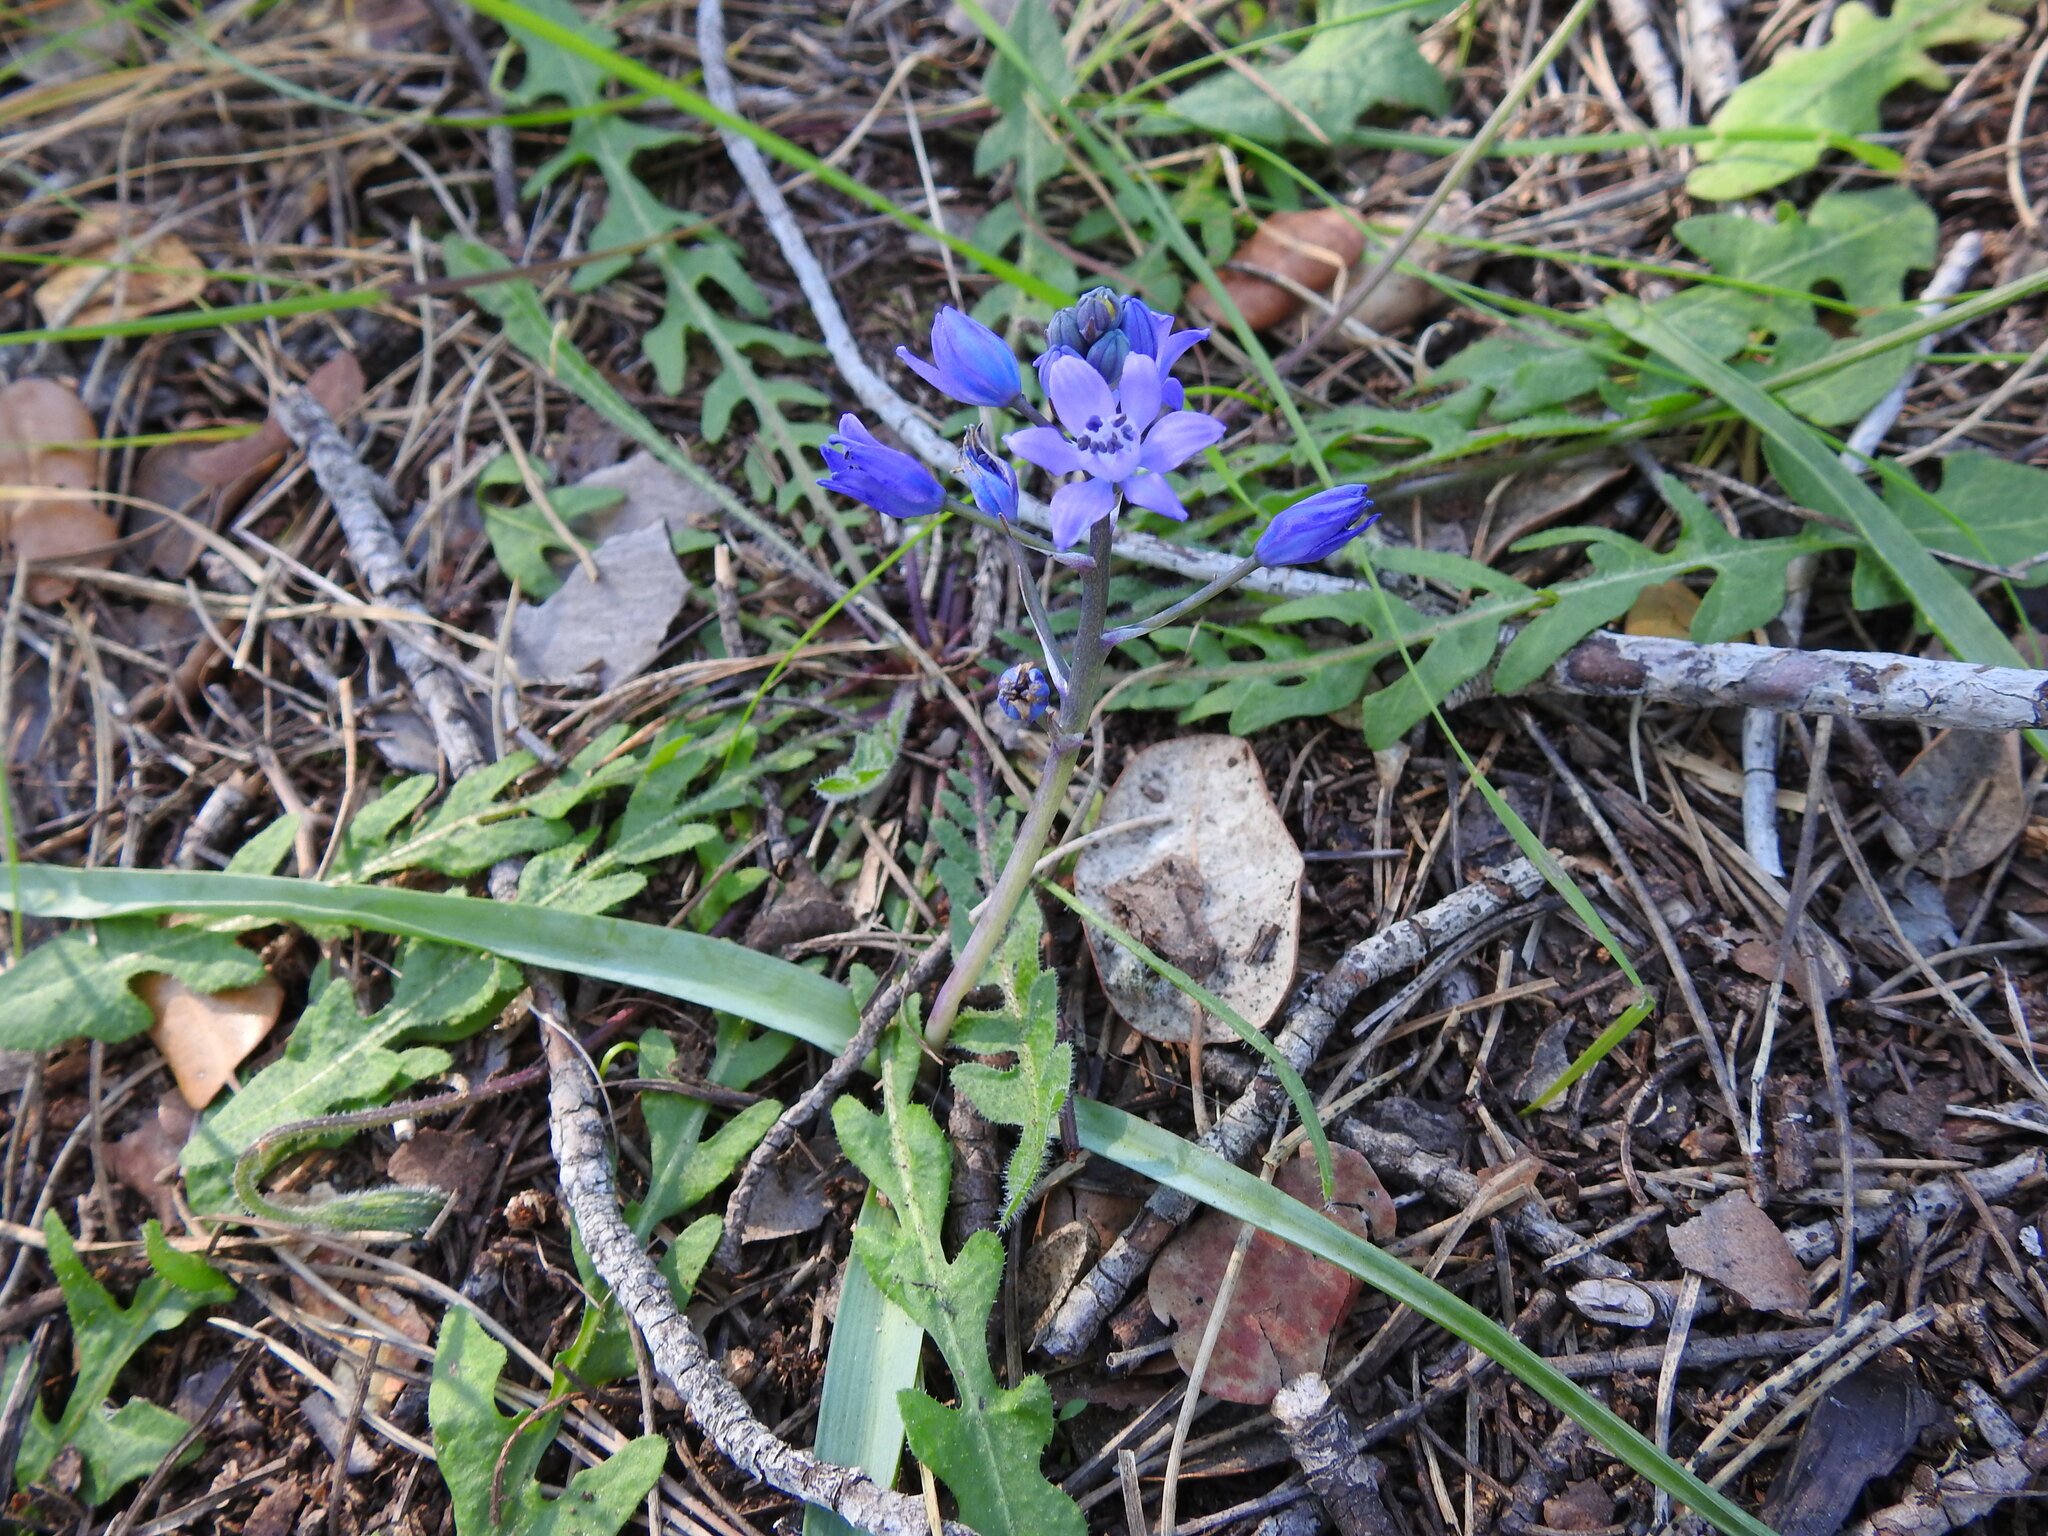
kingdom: Plantae
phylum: Tracheophyta
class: Liliopsida
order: Asparagales
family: Asparagaceae
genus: Scilla
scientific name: Scilla verna
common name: Spring squill
